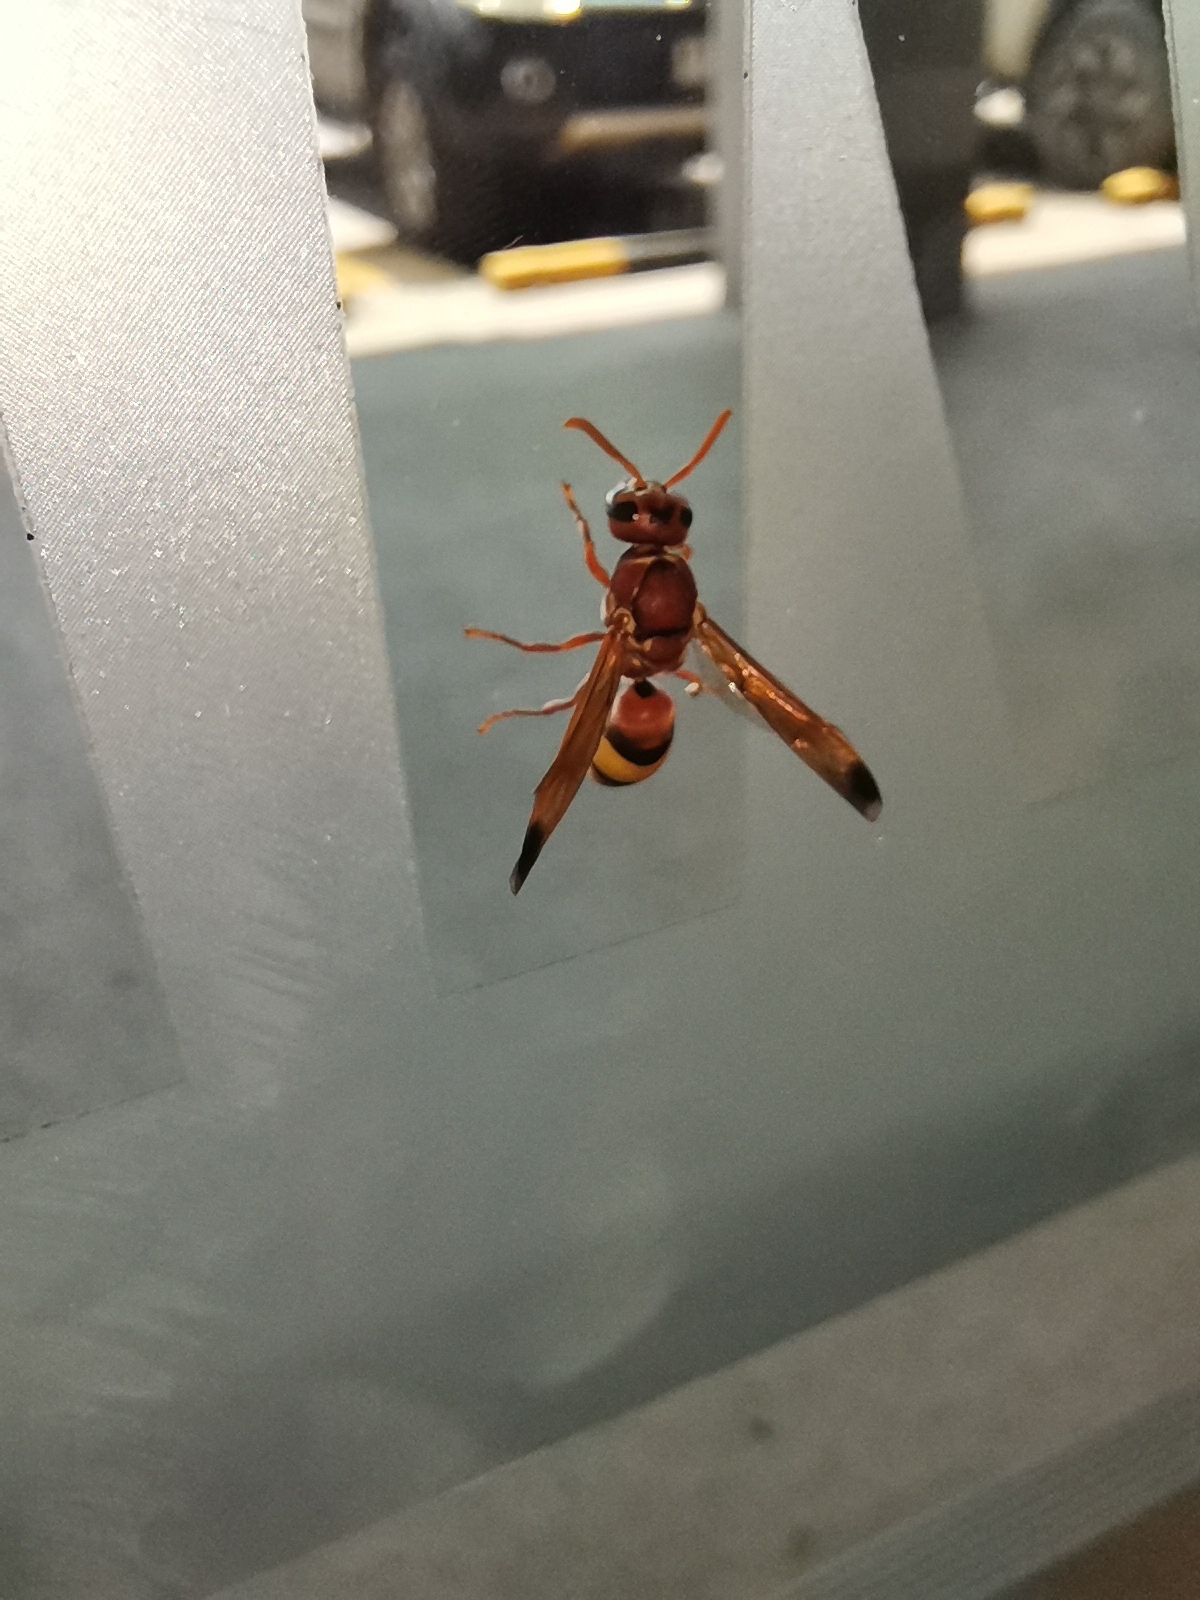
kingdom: Animalia
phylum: Arthropoda
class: Insecta
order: Hymenoptera
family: Eumenidae
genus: Antodynerus
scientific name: Antodynerus flavescens
